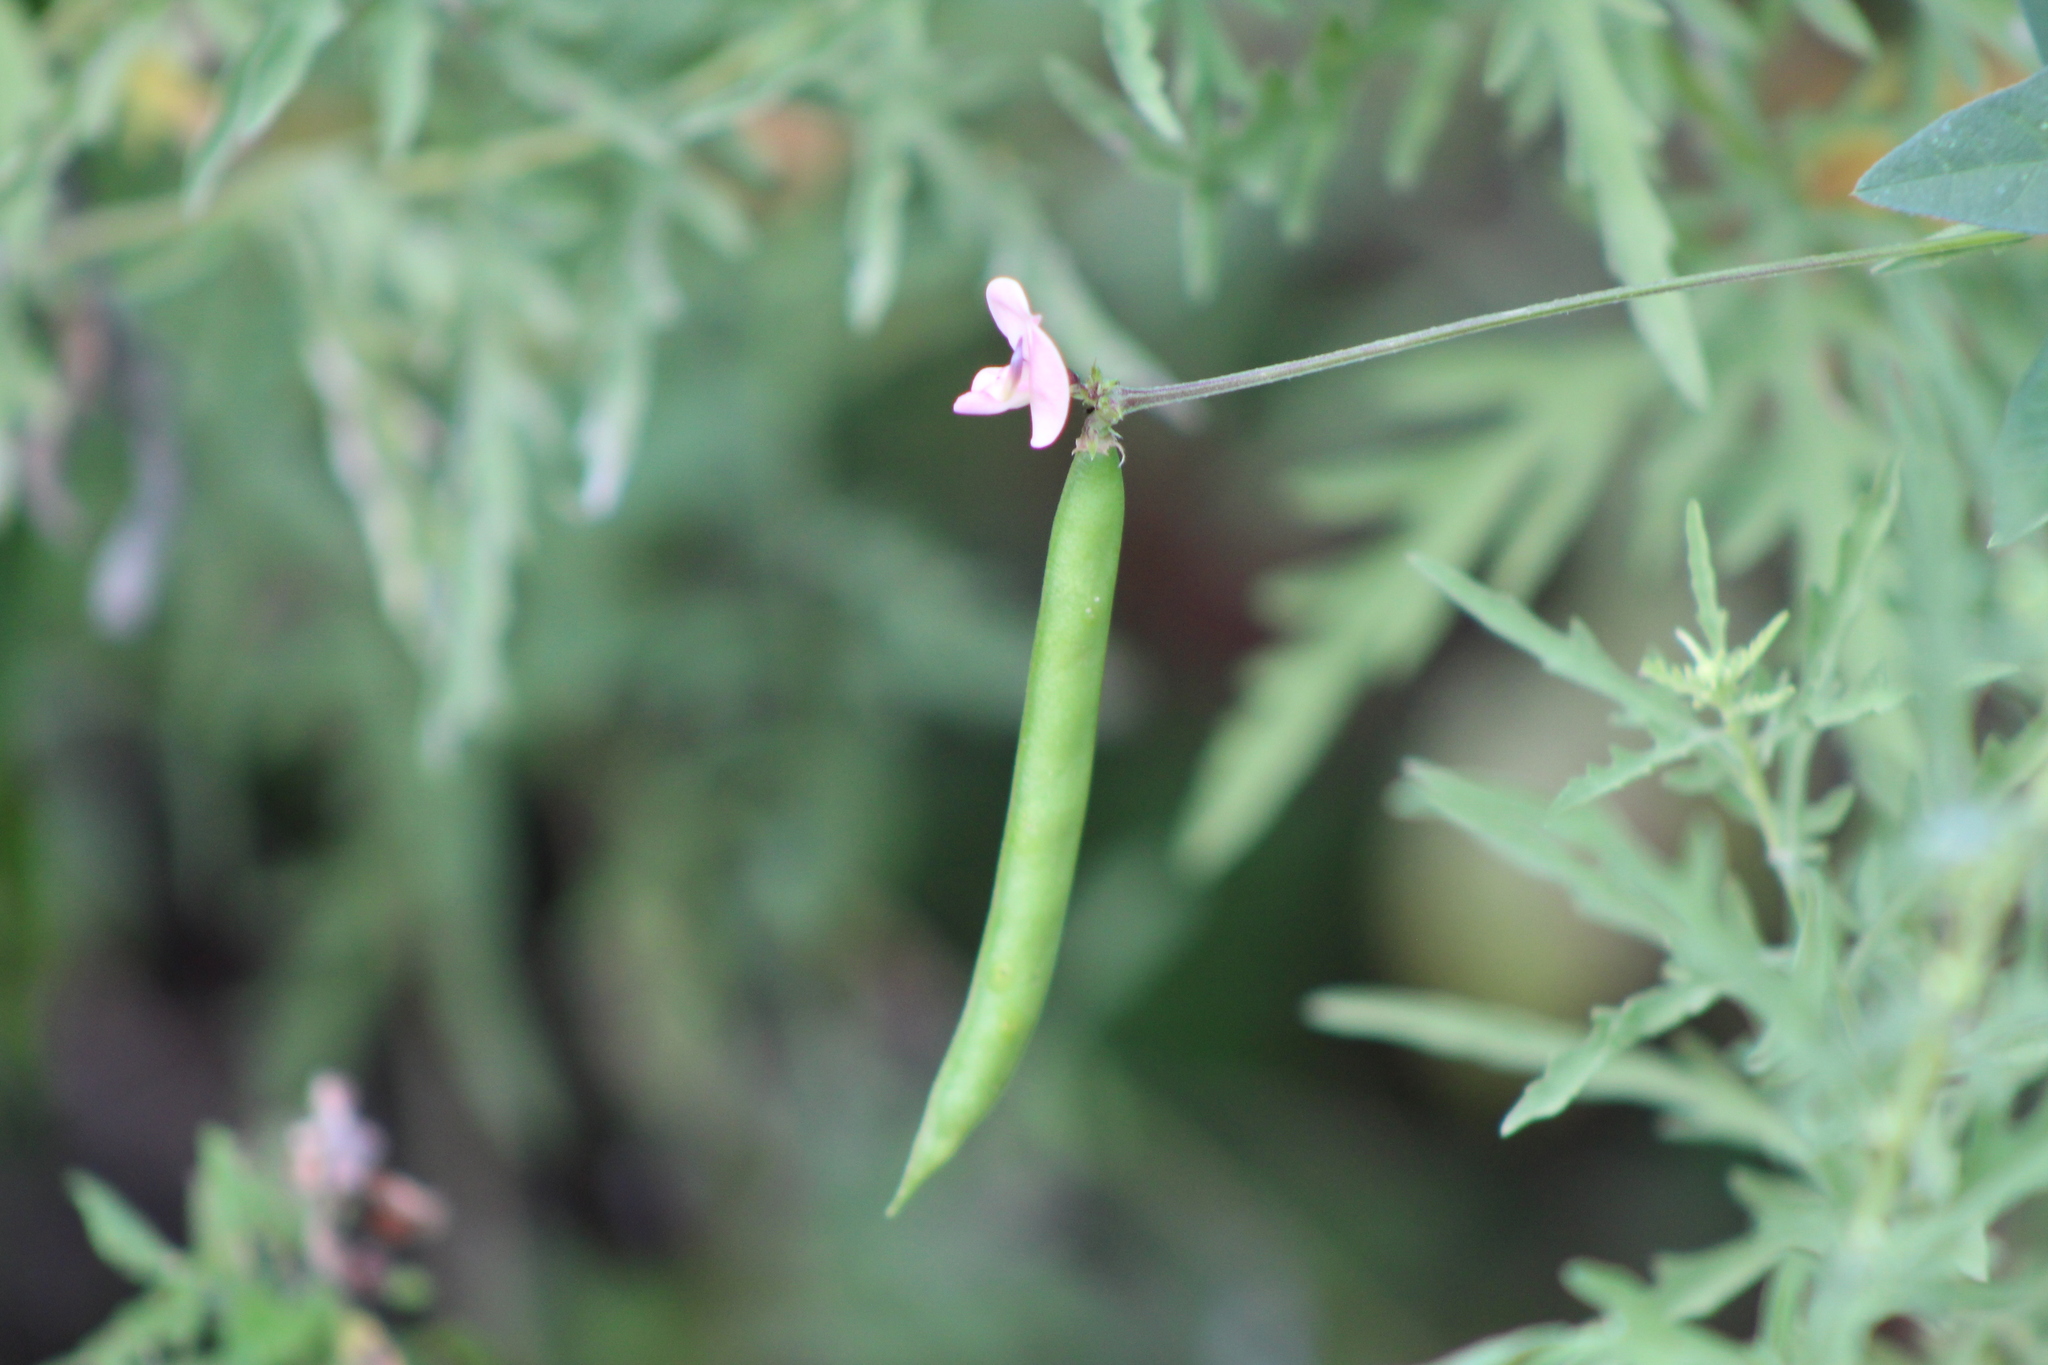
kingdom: Plantae
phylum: Tracheophyta
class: Magnoliopsida
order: Fabales
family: Fabaceae
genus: Strophostyles
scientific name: Strophostyles helvola
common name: Trailing wild bean
